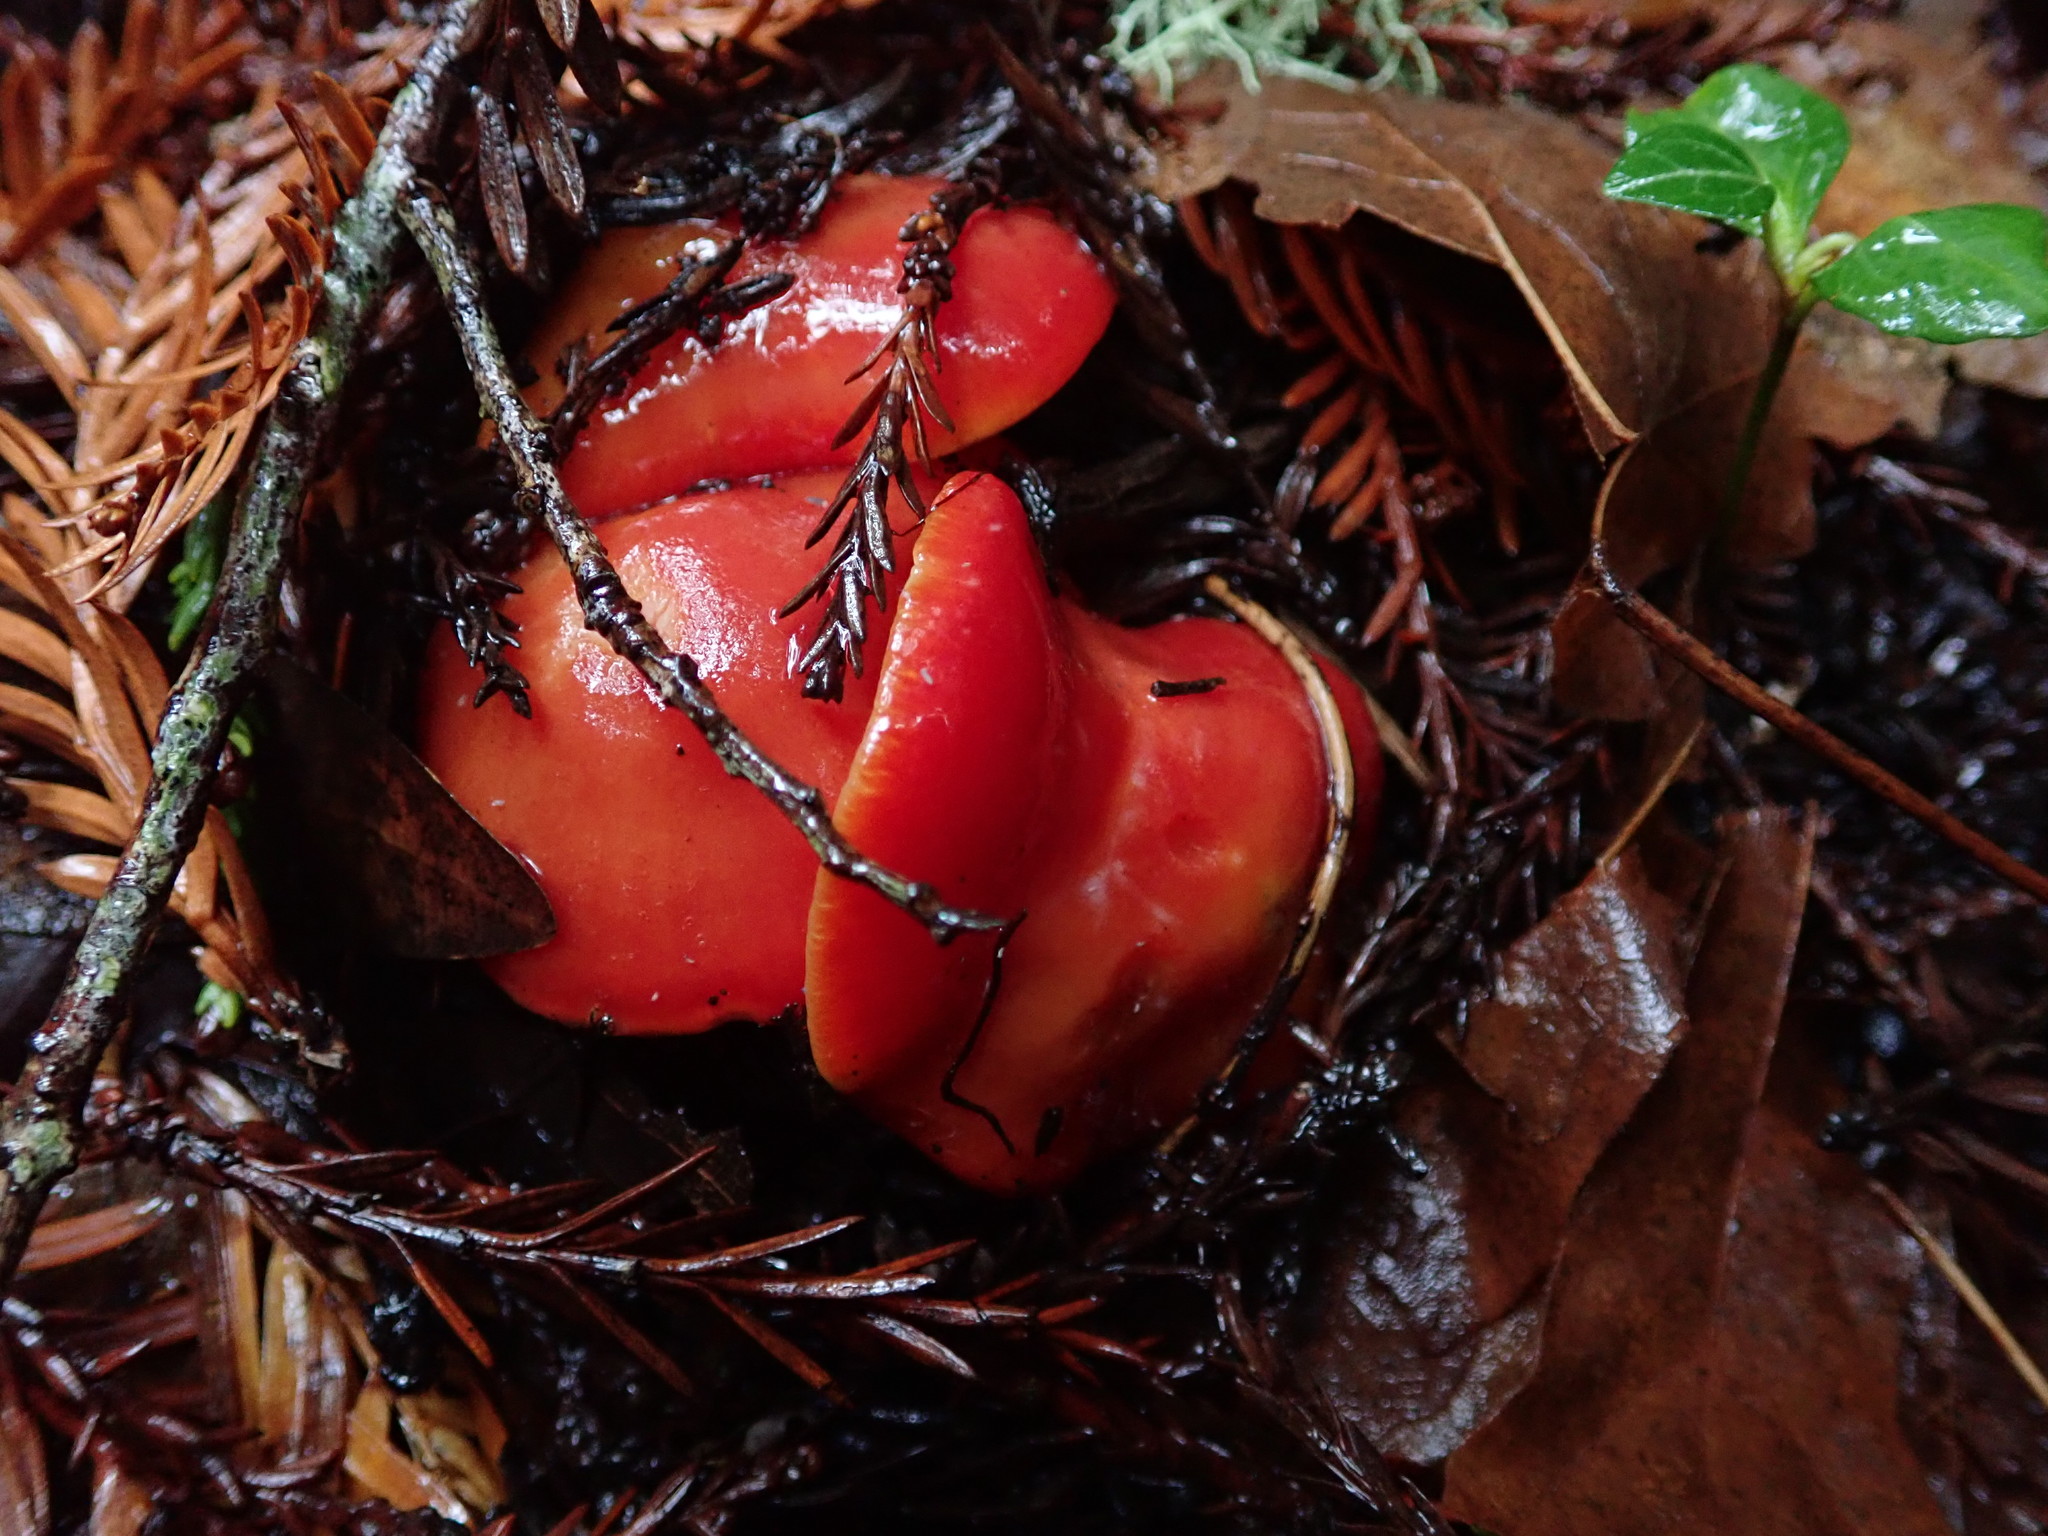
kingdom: Fungi
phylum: Basidiomycota
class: Agaricomycetes
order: Agaricales
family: Hygrophoraceae
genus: Hygrocybe
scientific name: Hygrocybe coccinea
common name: Scarlet hood
